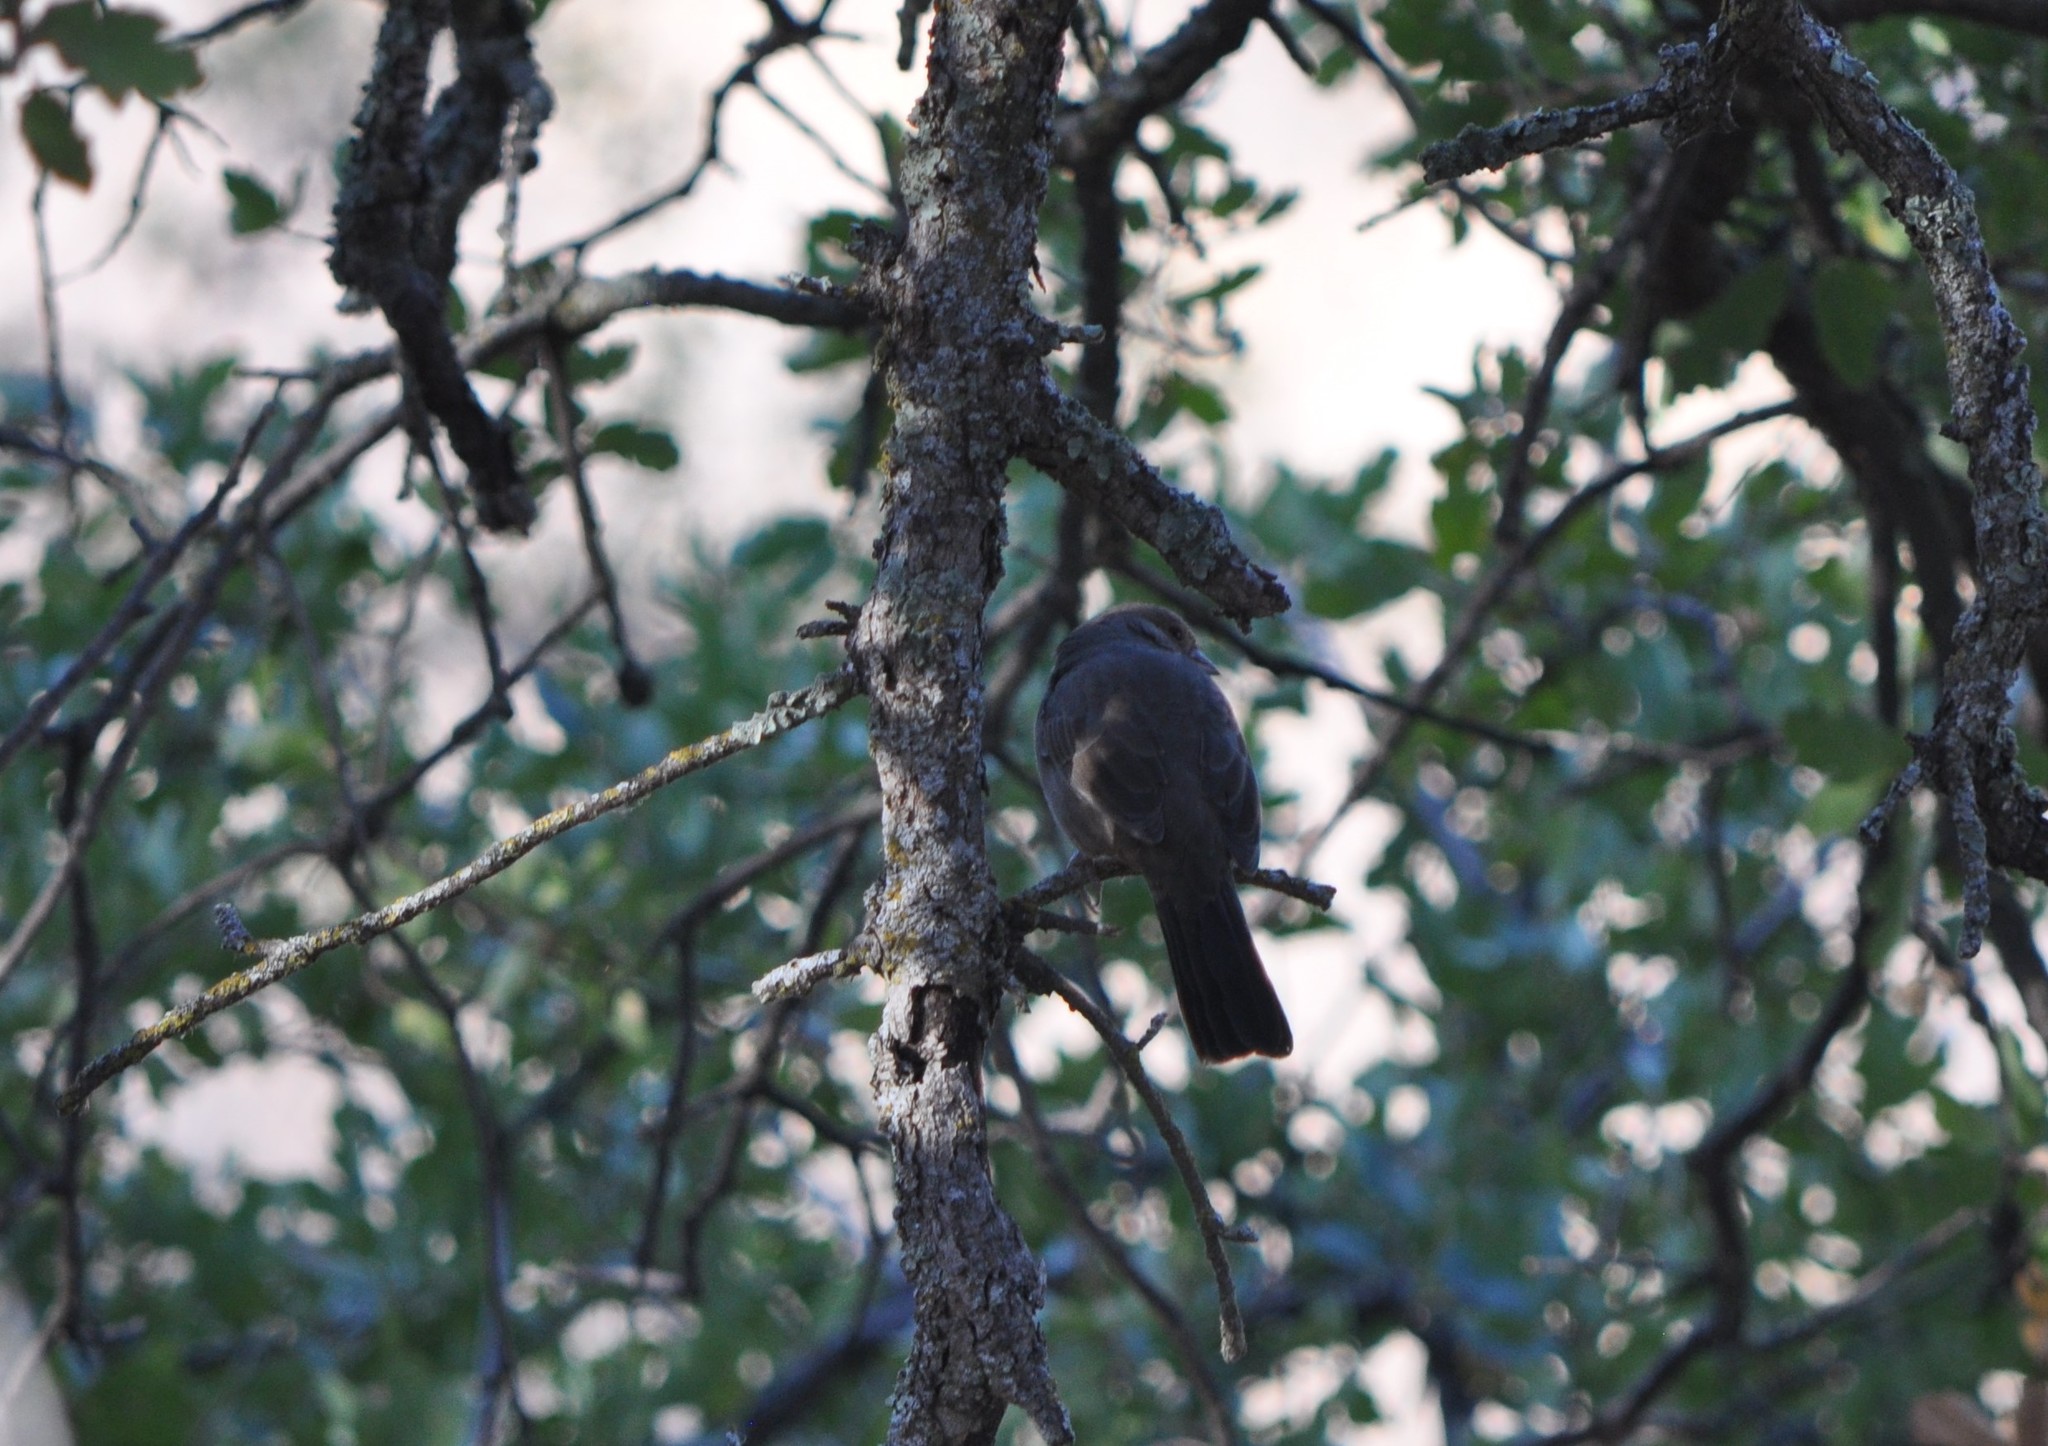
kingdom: Animalia
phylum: Chordata
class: Aves
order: Passeriformes
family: Passerellidae
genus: Melozone
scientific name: Melozone crissalis
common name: California towhee
